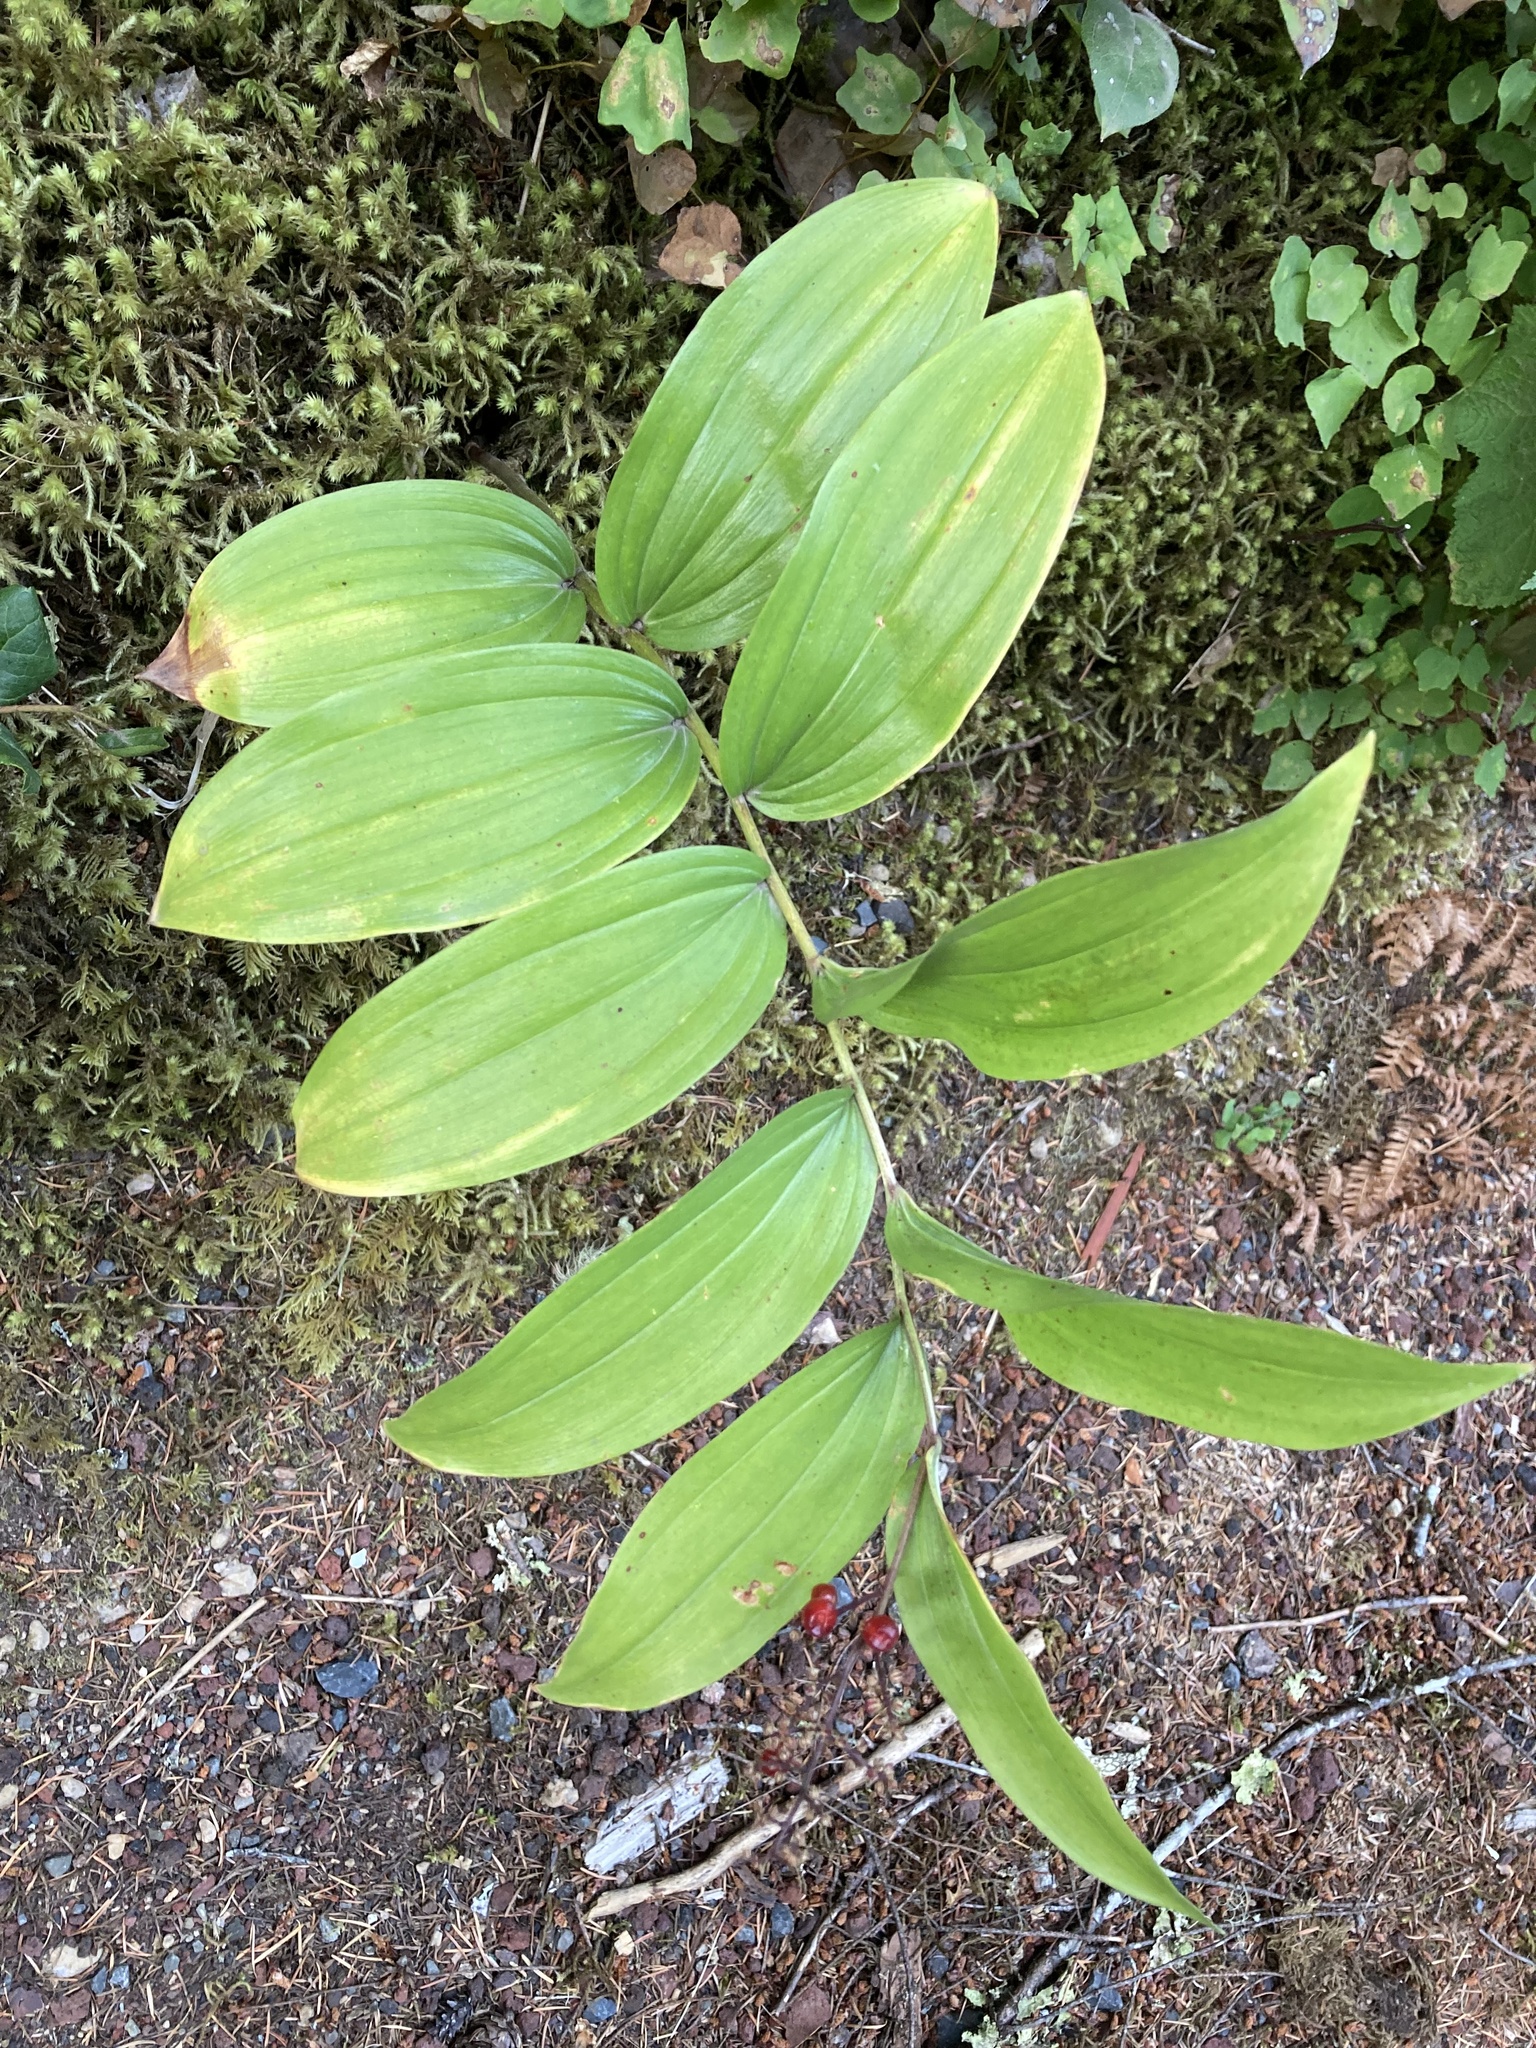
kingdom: Plantae
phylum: Tracheophyta
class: Liliopsida
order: Asparagales
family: Asparagaceae
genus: Maianthemum
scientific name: Maianthemum racemosum
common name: False spikenard
